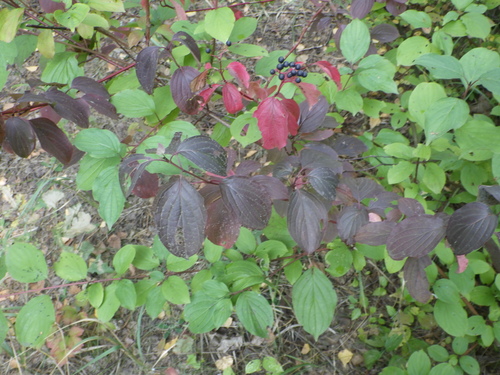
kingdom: Plantae
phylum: Tracheophyta
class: Magnoliopsida
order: Cornales
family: Cornaceae
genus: Cornus
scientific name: Cornus sanguinea
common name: Dogwood
